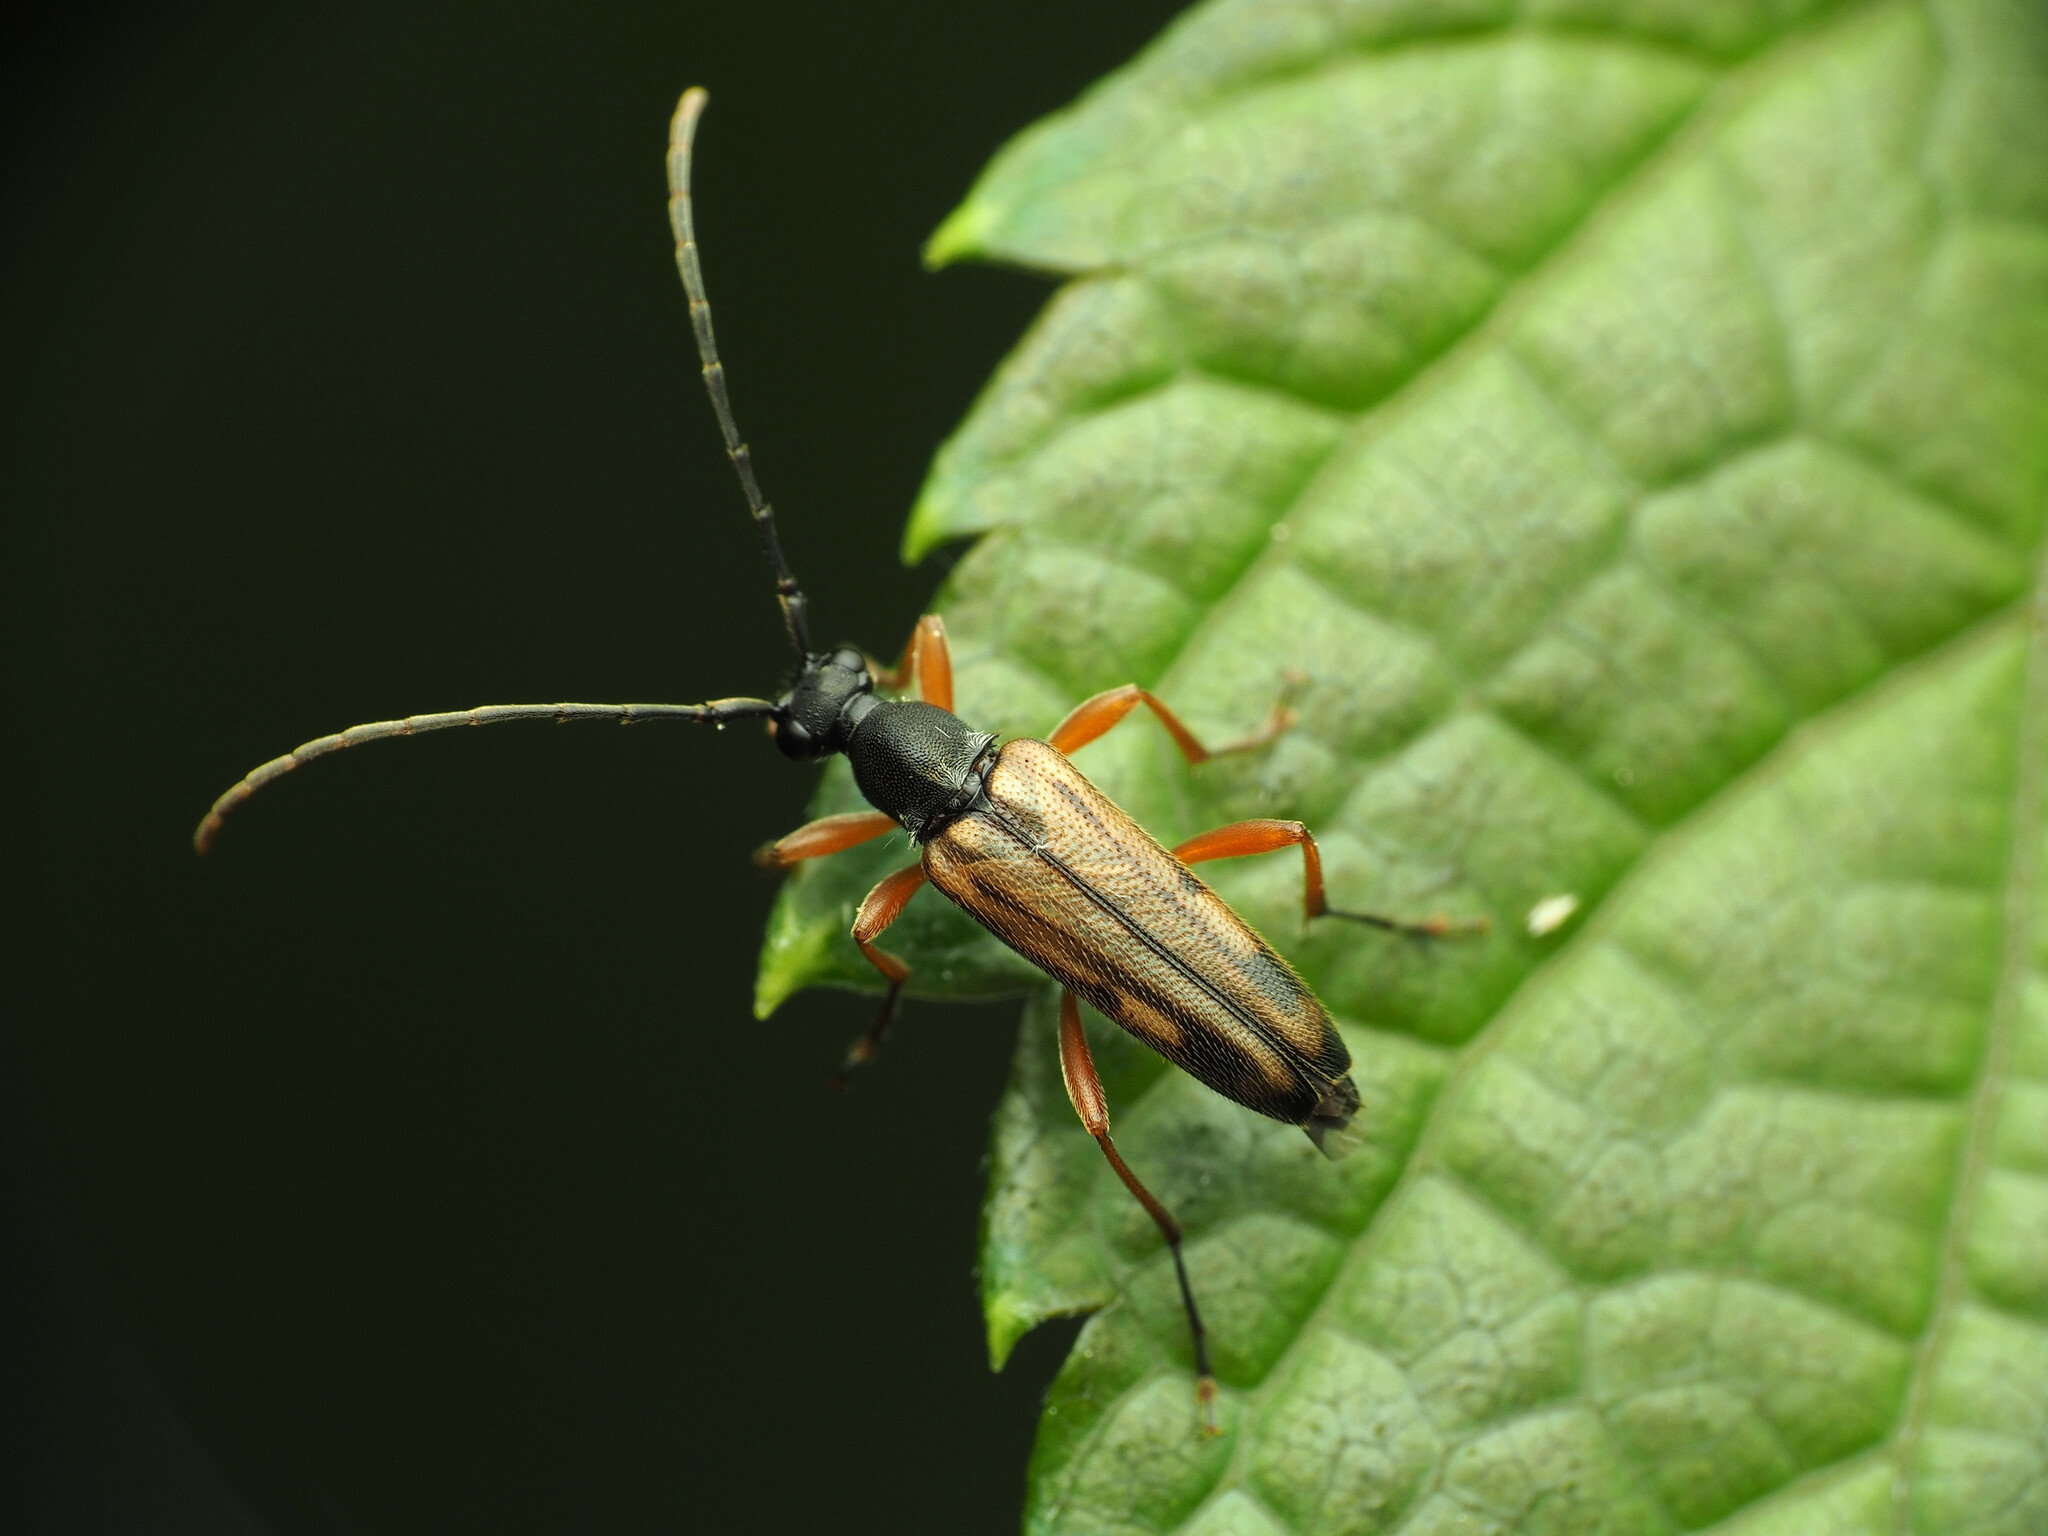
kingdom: Animalia
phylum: Arthropoda
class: Insecta
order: Coleoptera
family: Cerambycidae
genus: Analeptura
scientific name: Analeptura lineola
